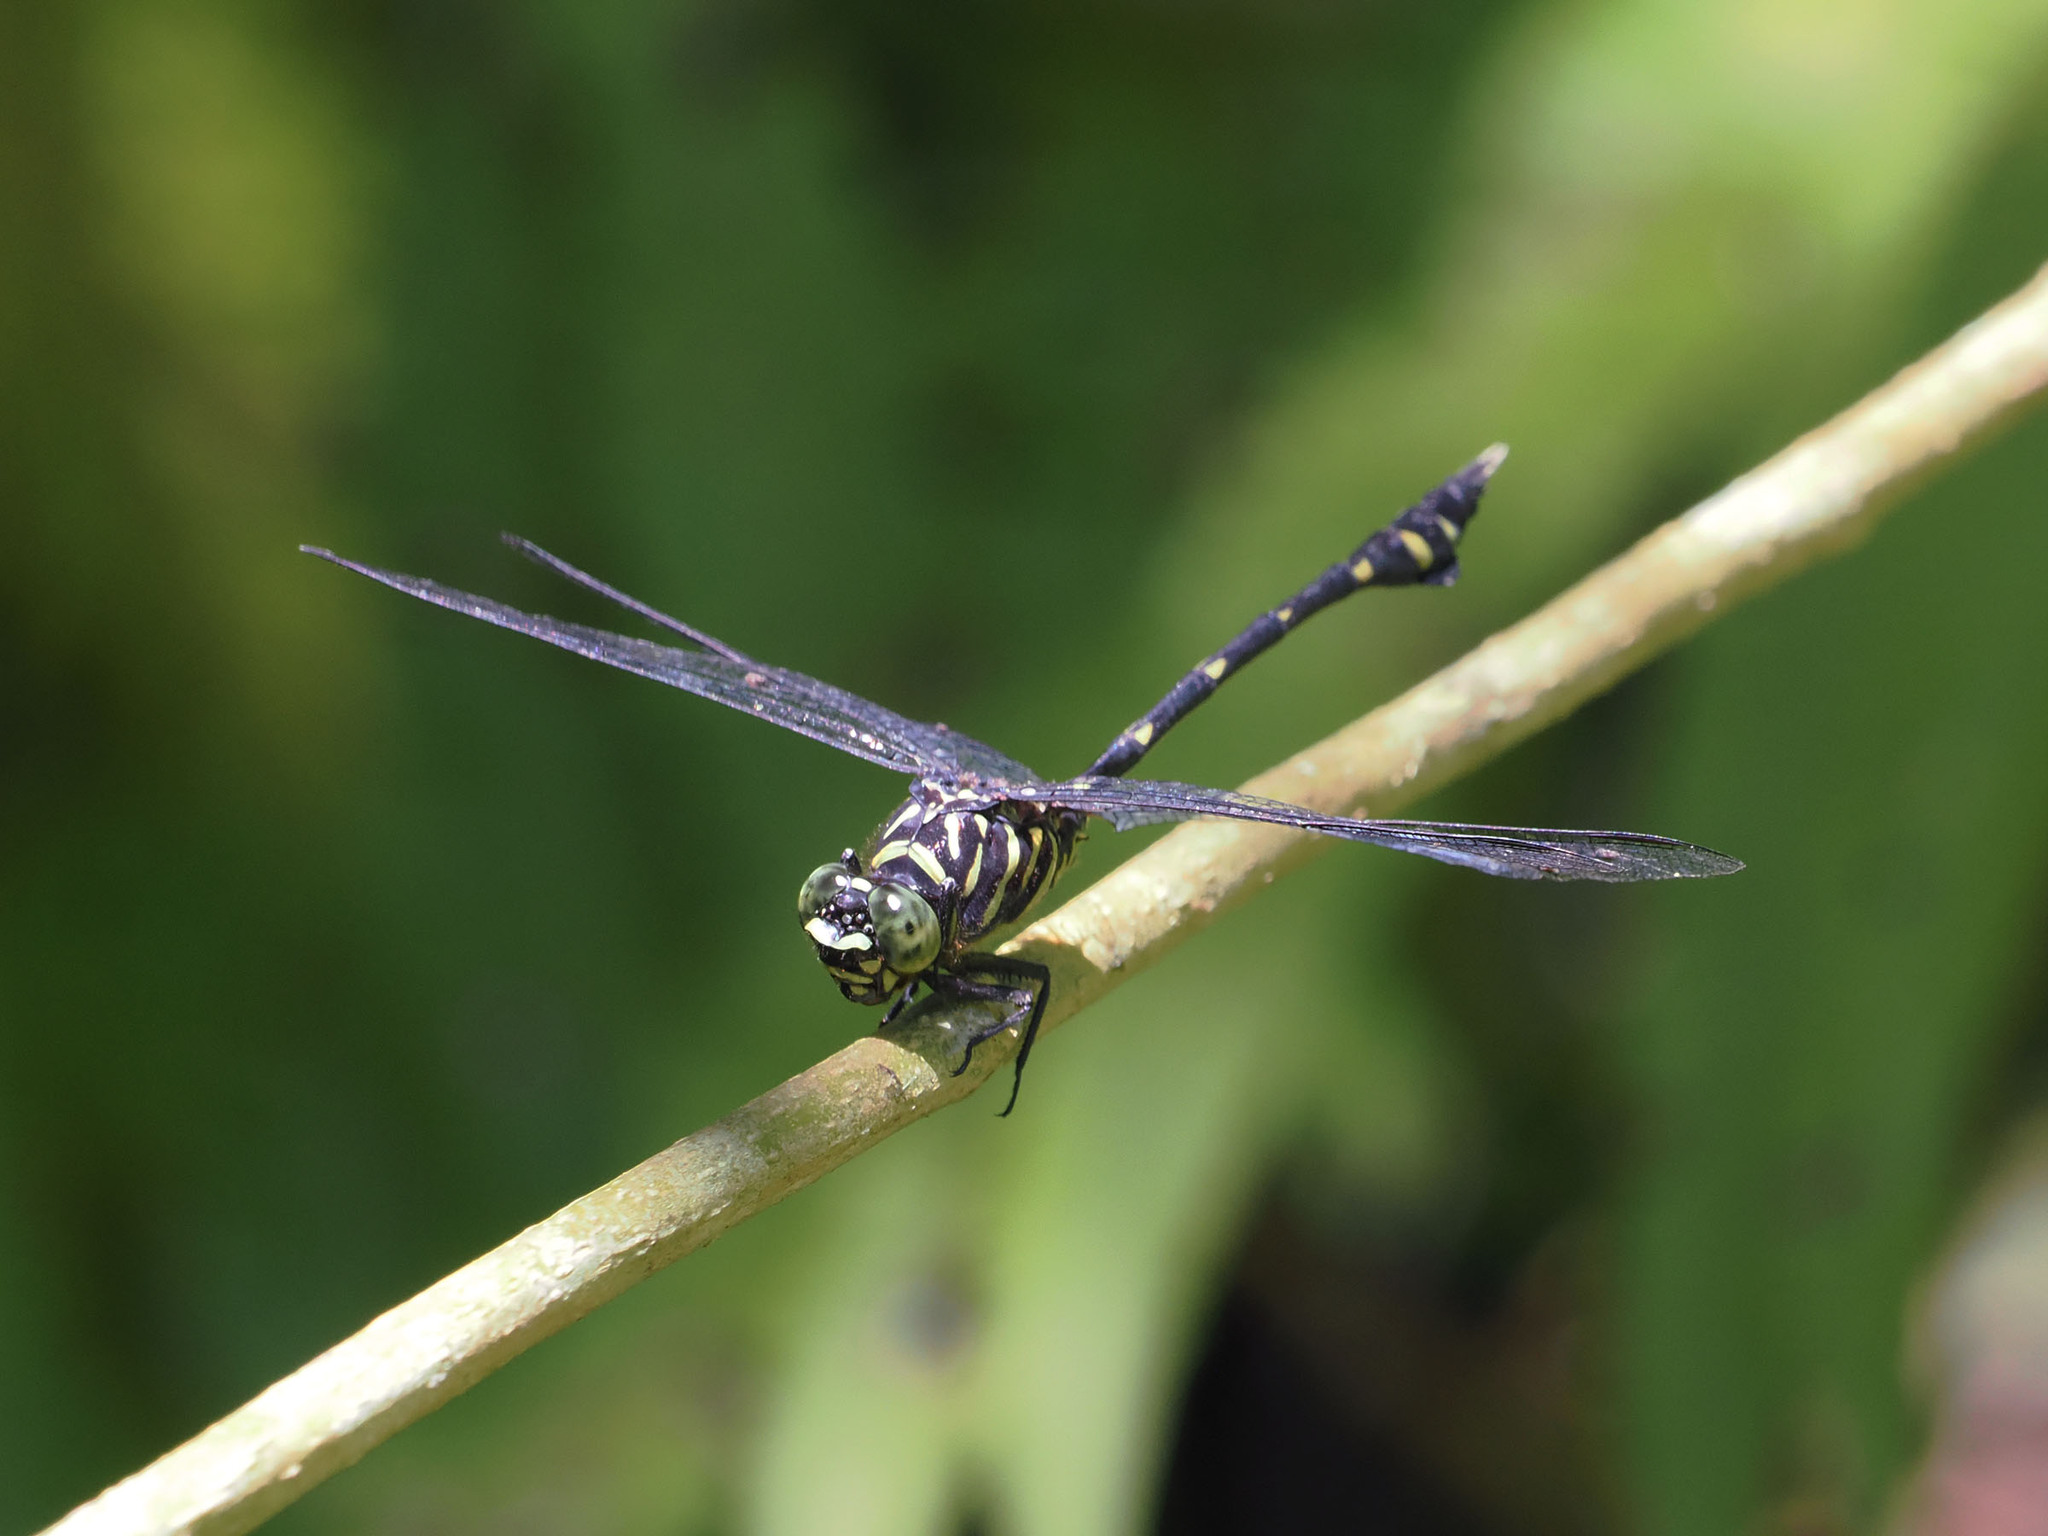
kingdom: Animalia
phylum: Arthropoda
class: Insecta
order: Odonata
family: Gomphidae
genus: Ictinogomphus
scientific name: Ictinogomphus lieftincki
